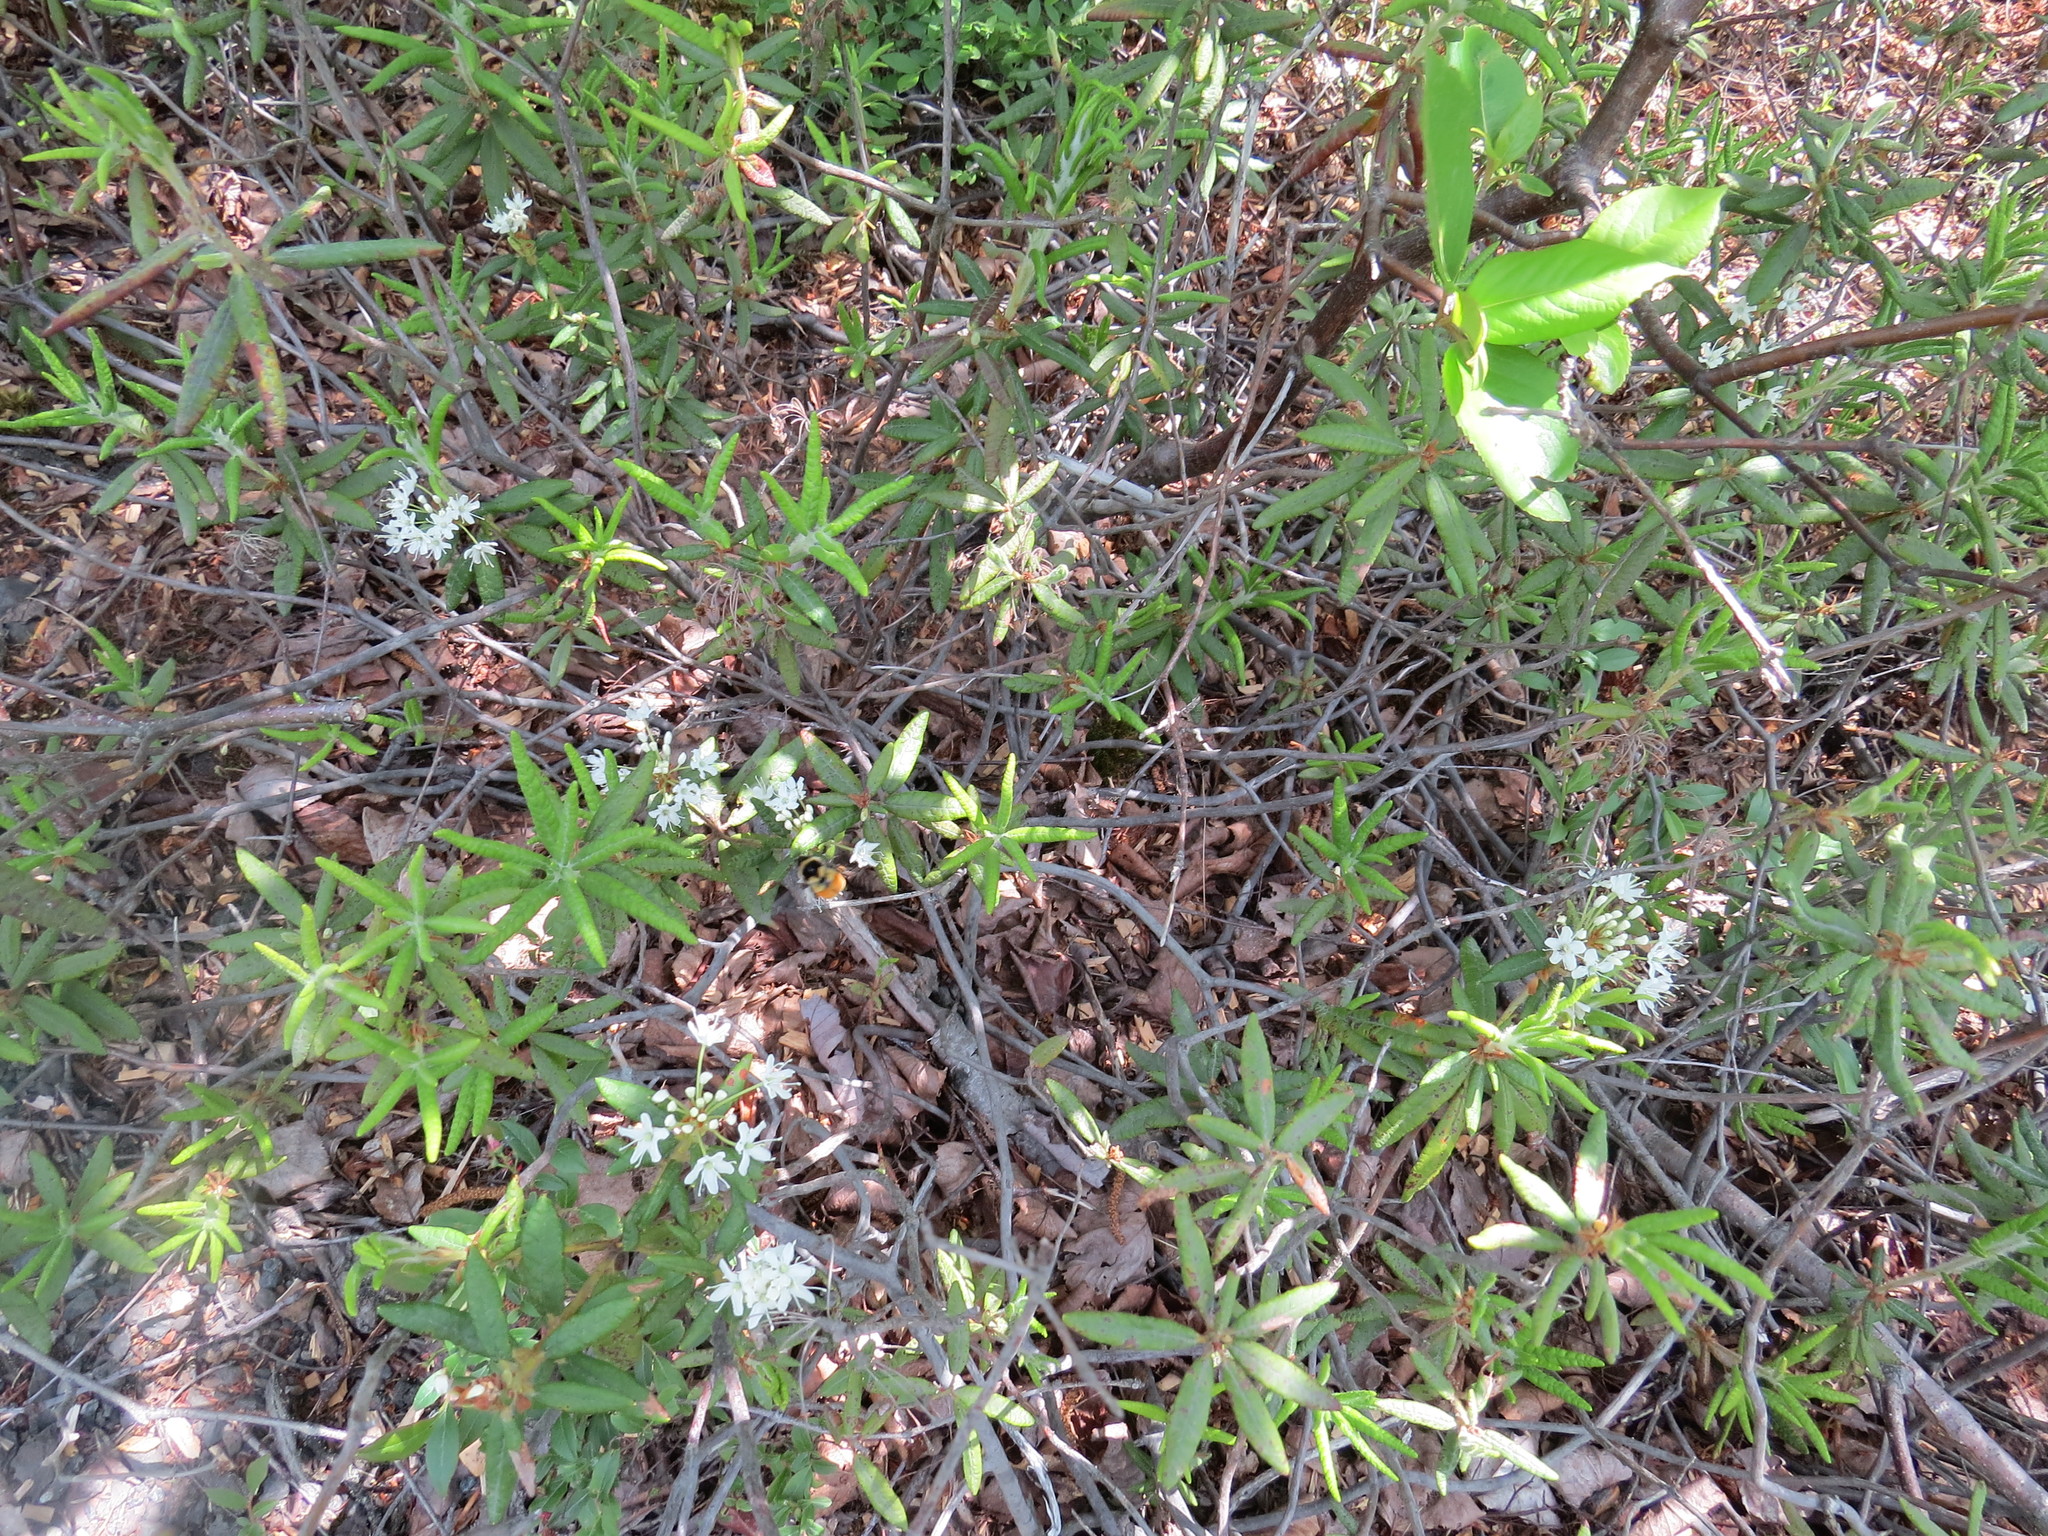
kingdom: Plantae
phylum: Tracheophyta
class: Magnoliopsida
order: Ericales
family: Ericaceae
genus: Rhododendron
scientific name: Rhododendron groenlandicum
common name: Bog labrador tea
